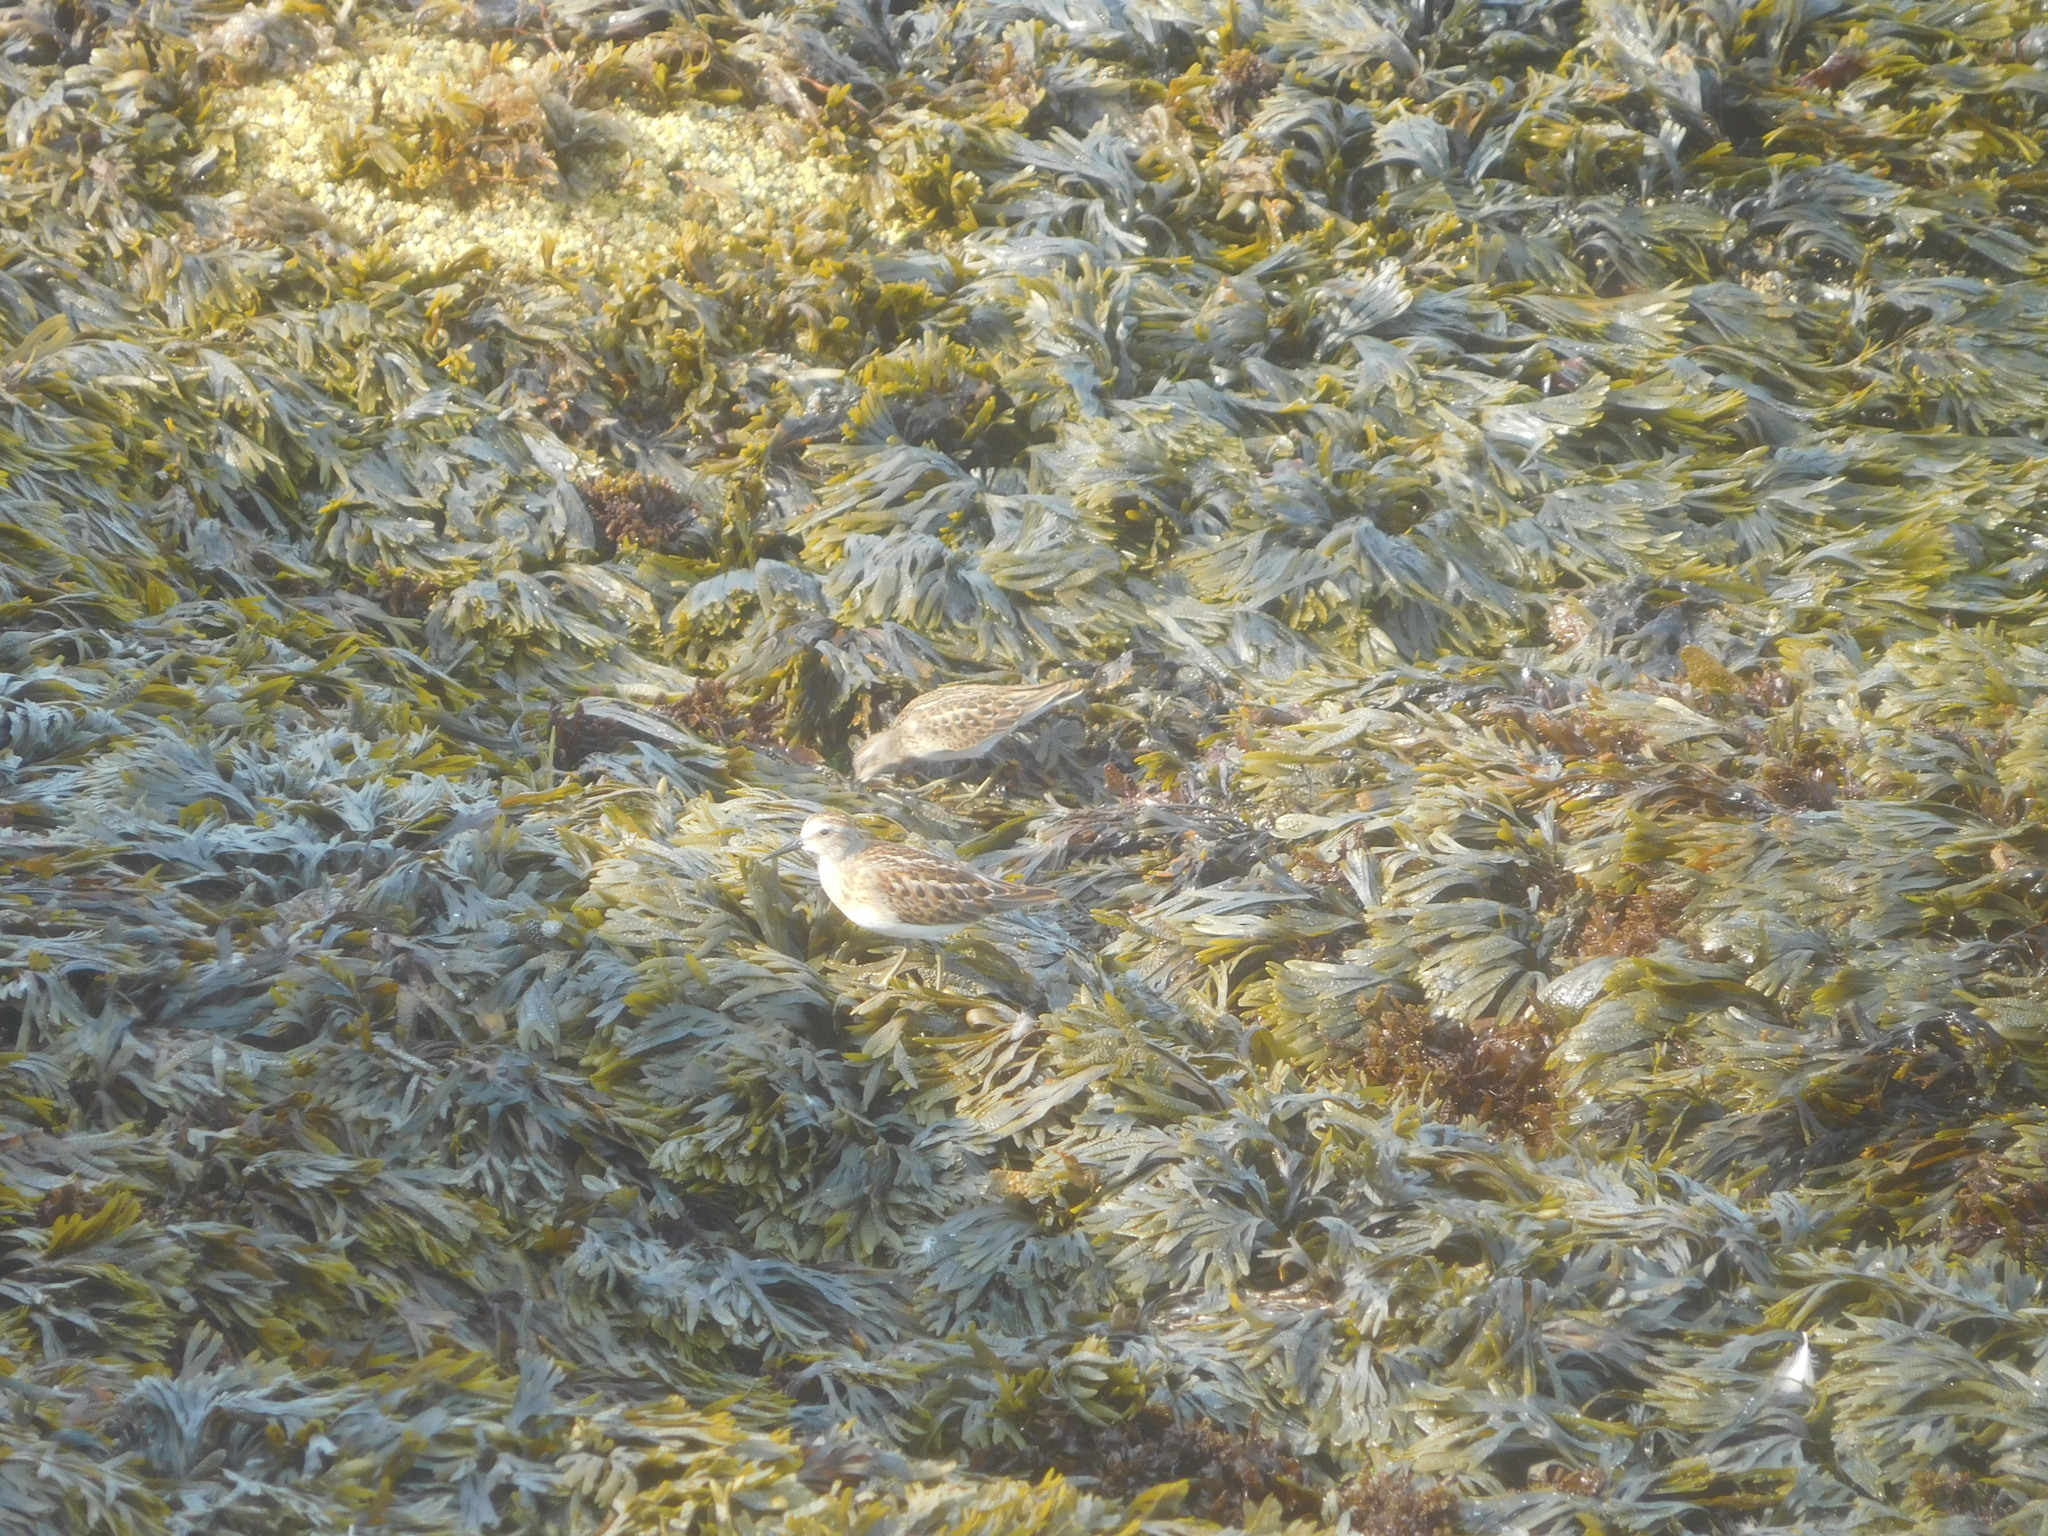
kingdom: Animalia
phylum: Chordata
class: Aves
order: Charadriiformes
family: Scolopacidae
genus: Calidris
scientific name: Calidris minutilla
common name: Least sandpiper
